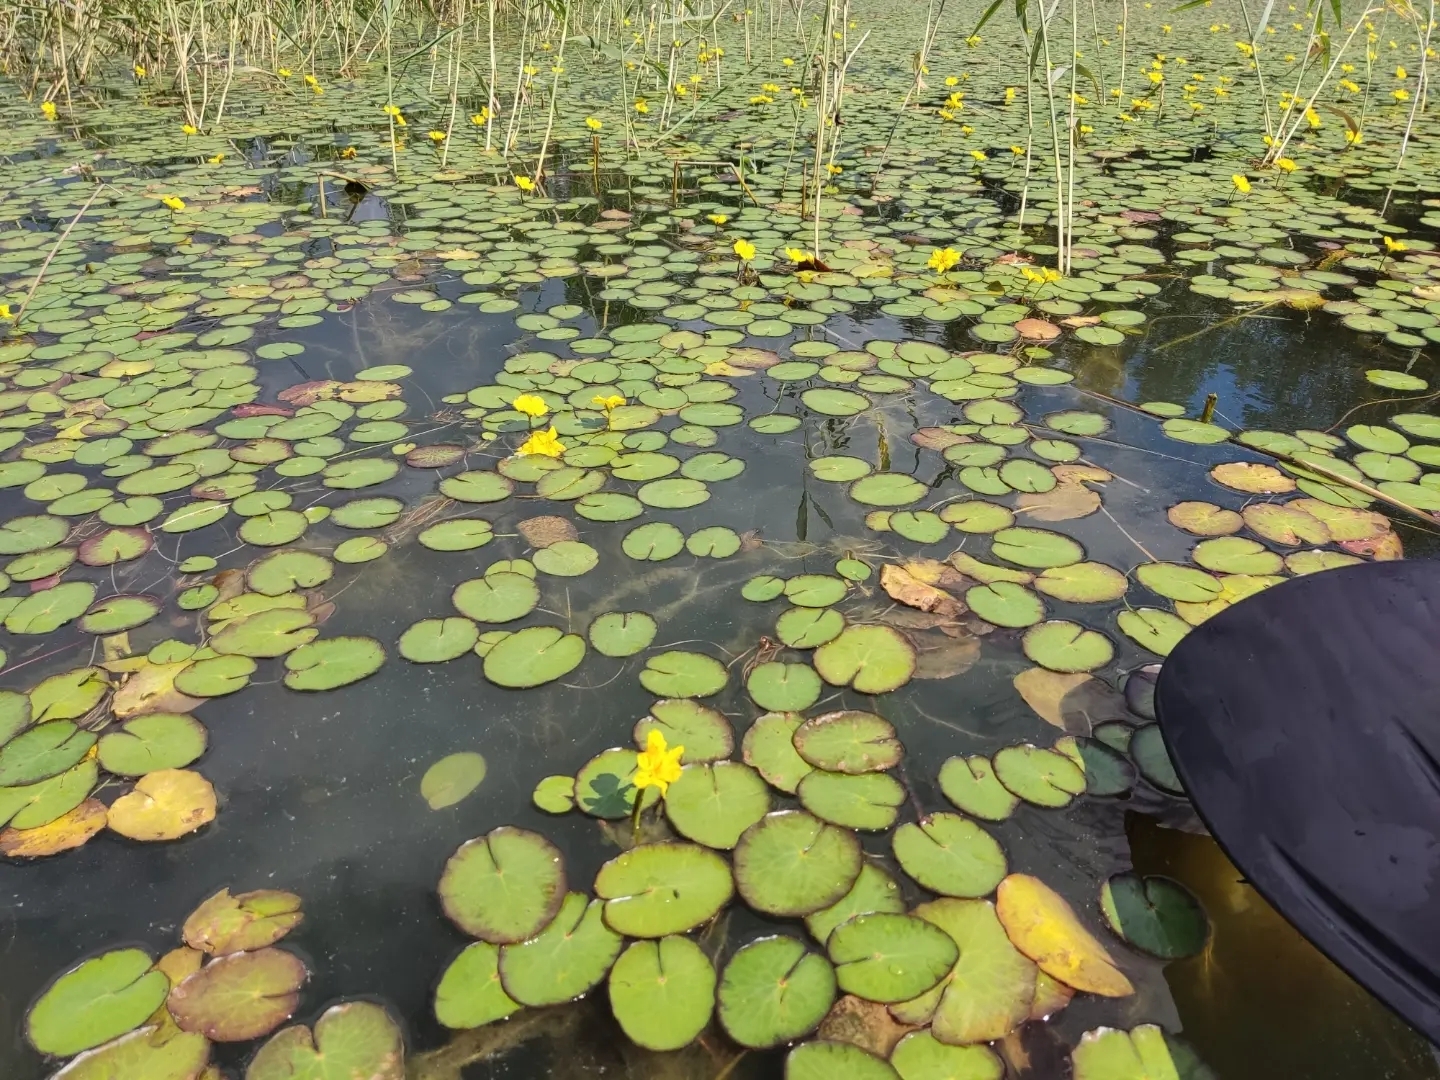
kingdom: Plantae
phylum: Tracheophyta
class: Magnoliopsida
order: Asterales
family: Menyanthaceae
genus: Nymphoides
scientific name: Nymphoides peltata
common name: Fringed water-lily
